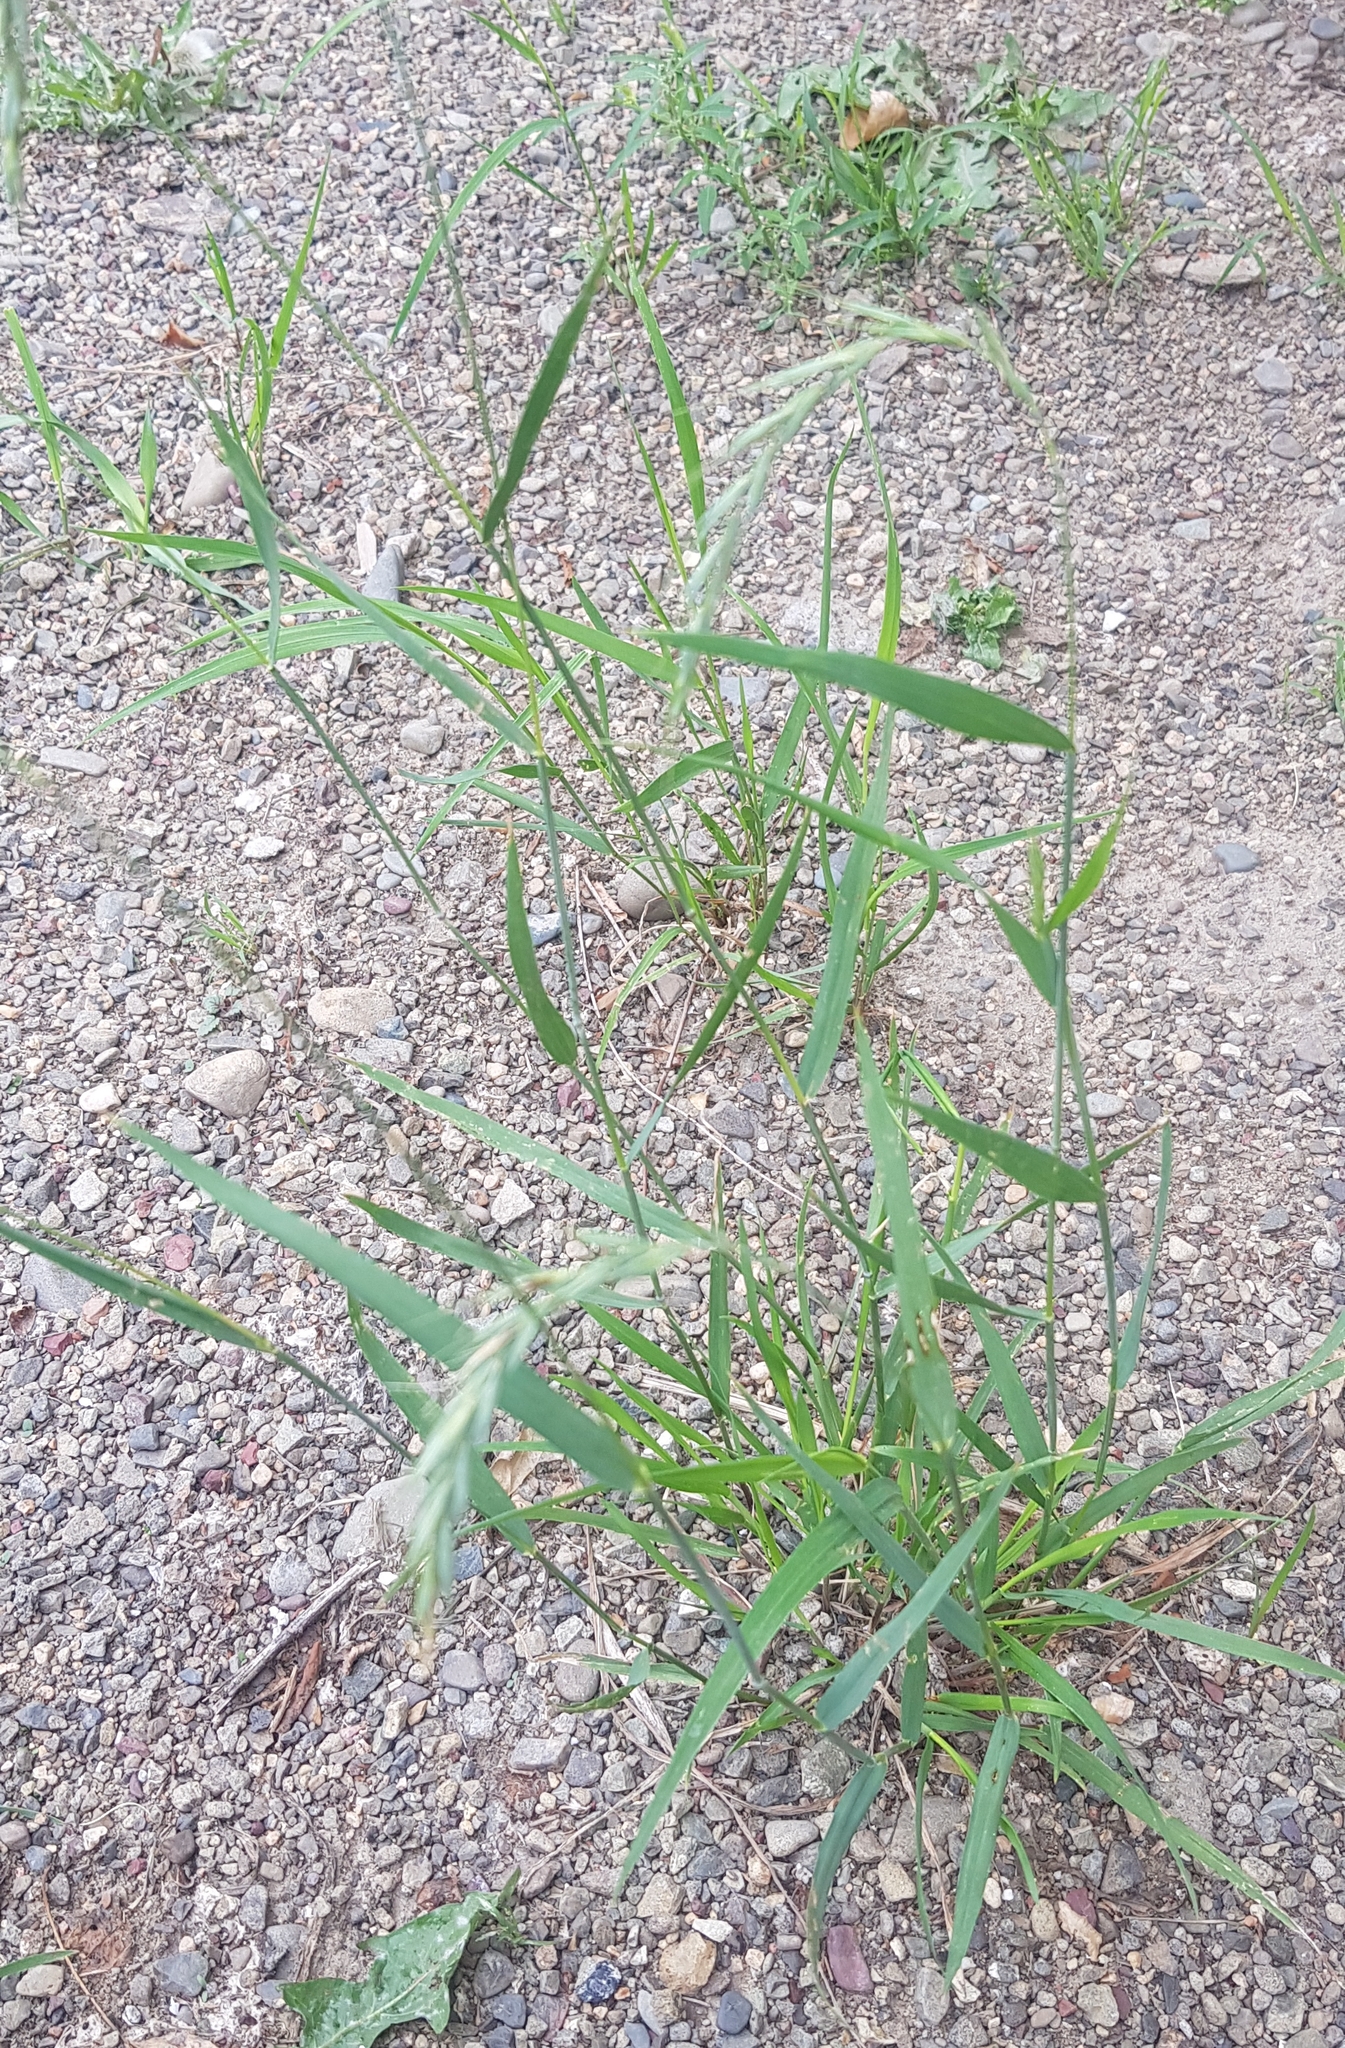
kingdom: Plantae
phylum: Tracheophyta
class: Liliopsida
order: Poales
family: Poaceae
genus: Elymus
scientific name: Elymus sibiricus
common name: Siberian wildrye
